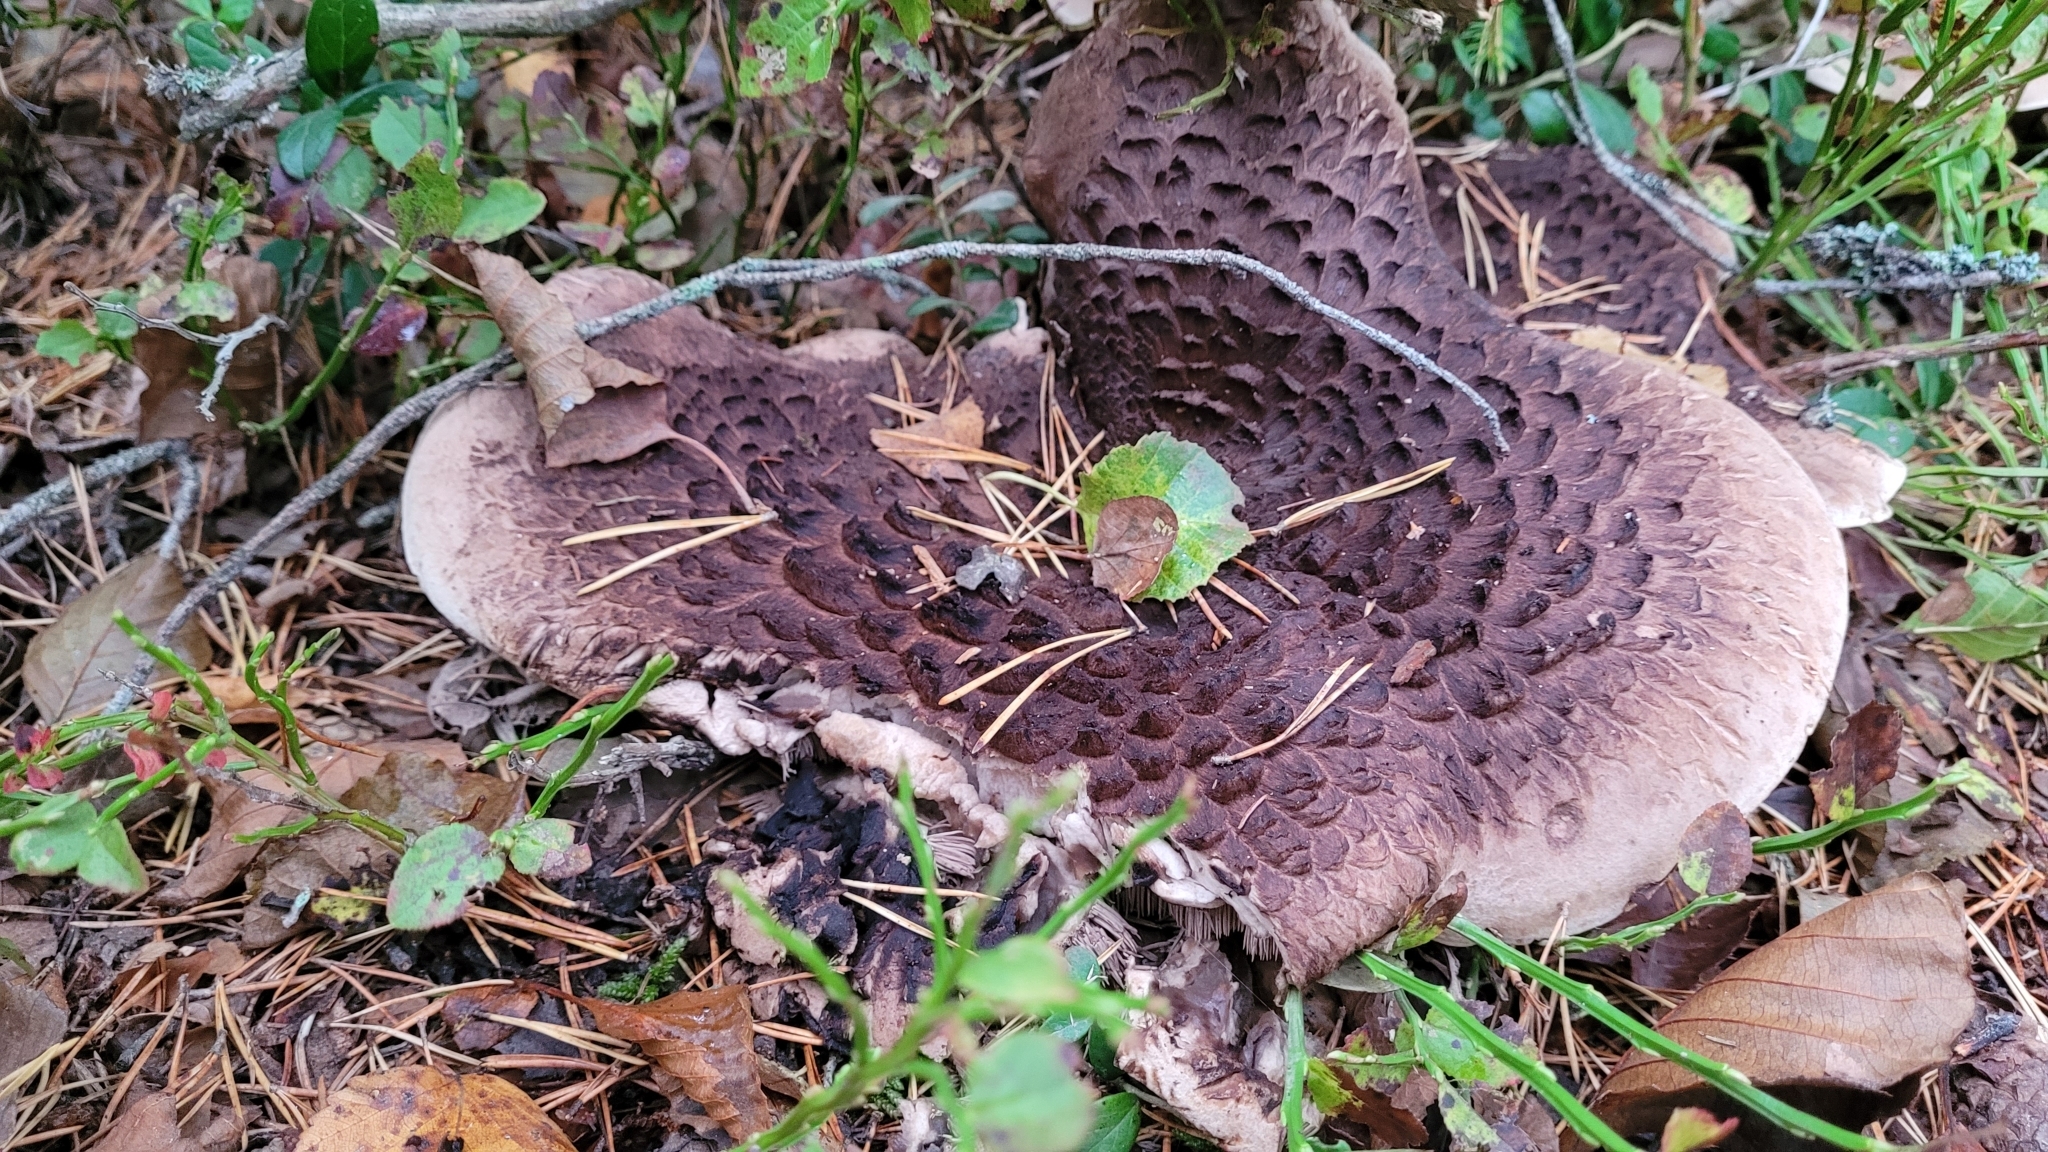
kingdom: Fungi
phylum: Basidiomycota
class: Agaricomycetes
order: Thelephorales
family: Bankeraceae
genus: Sarcodon
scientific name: Sarcodon squamosus
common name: Scaly tooth
